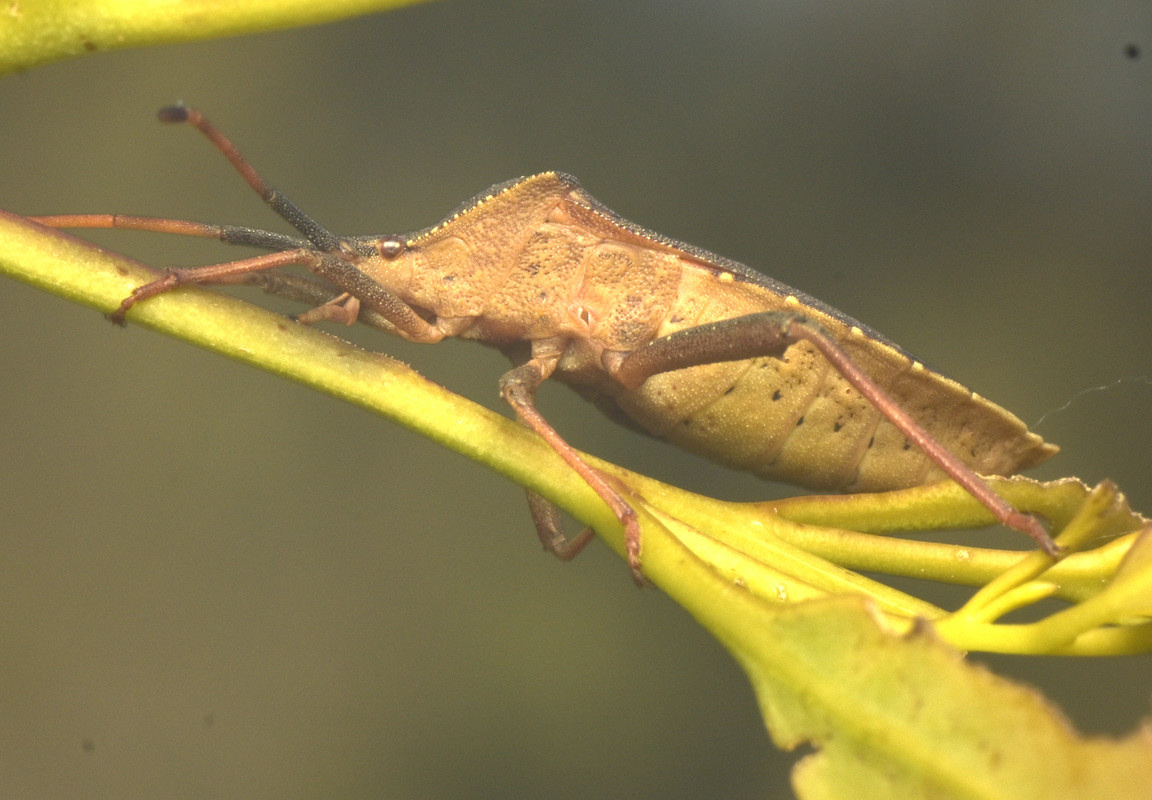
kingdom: Animalia
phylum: Arthropoda
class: Insecta
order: Hemiptera
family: Coreidae
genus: Amorbus
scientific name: Amorbus rubiginosus
